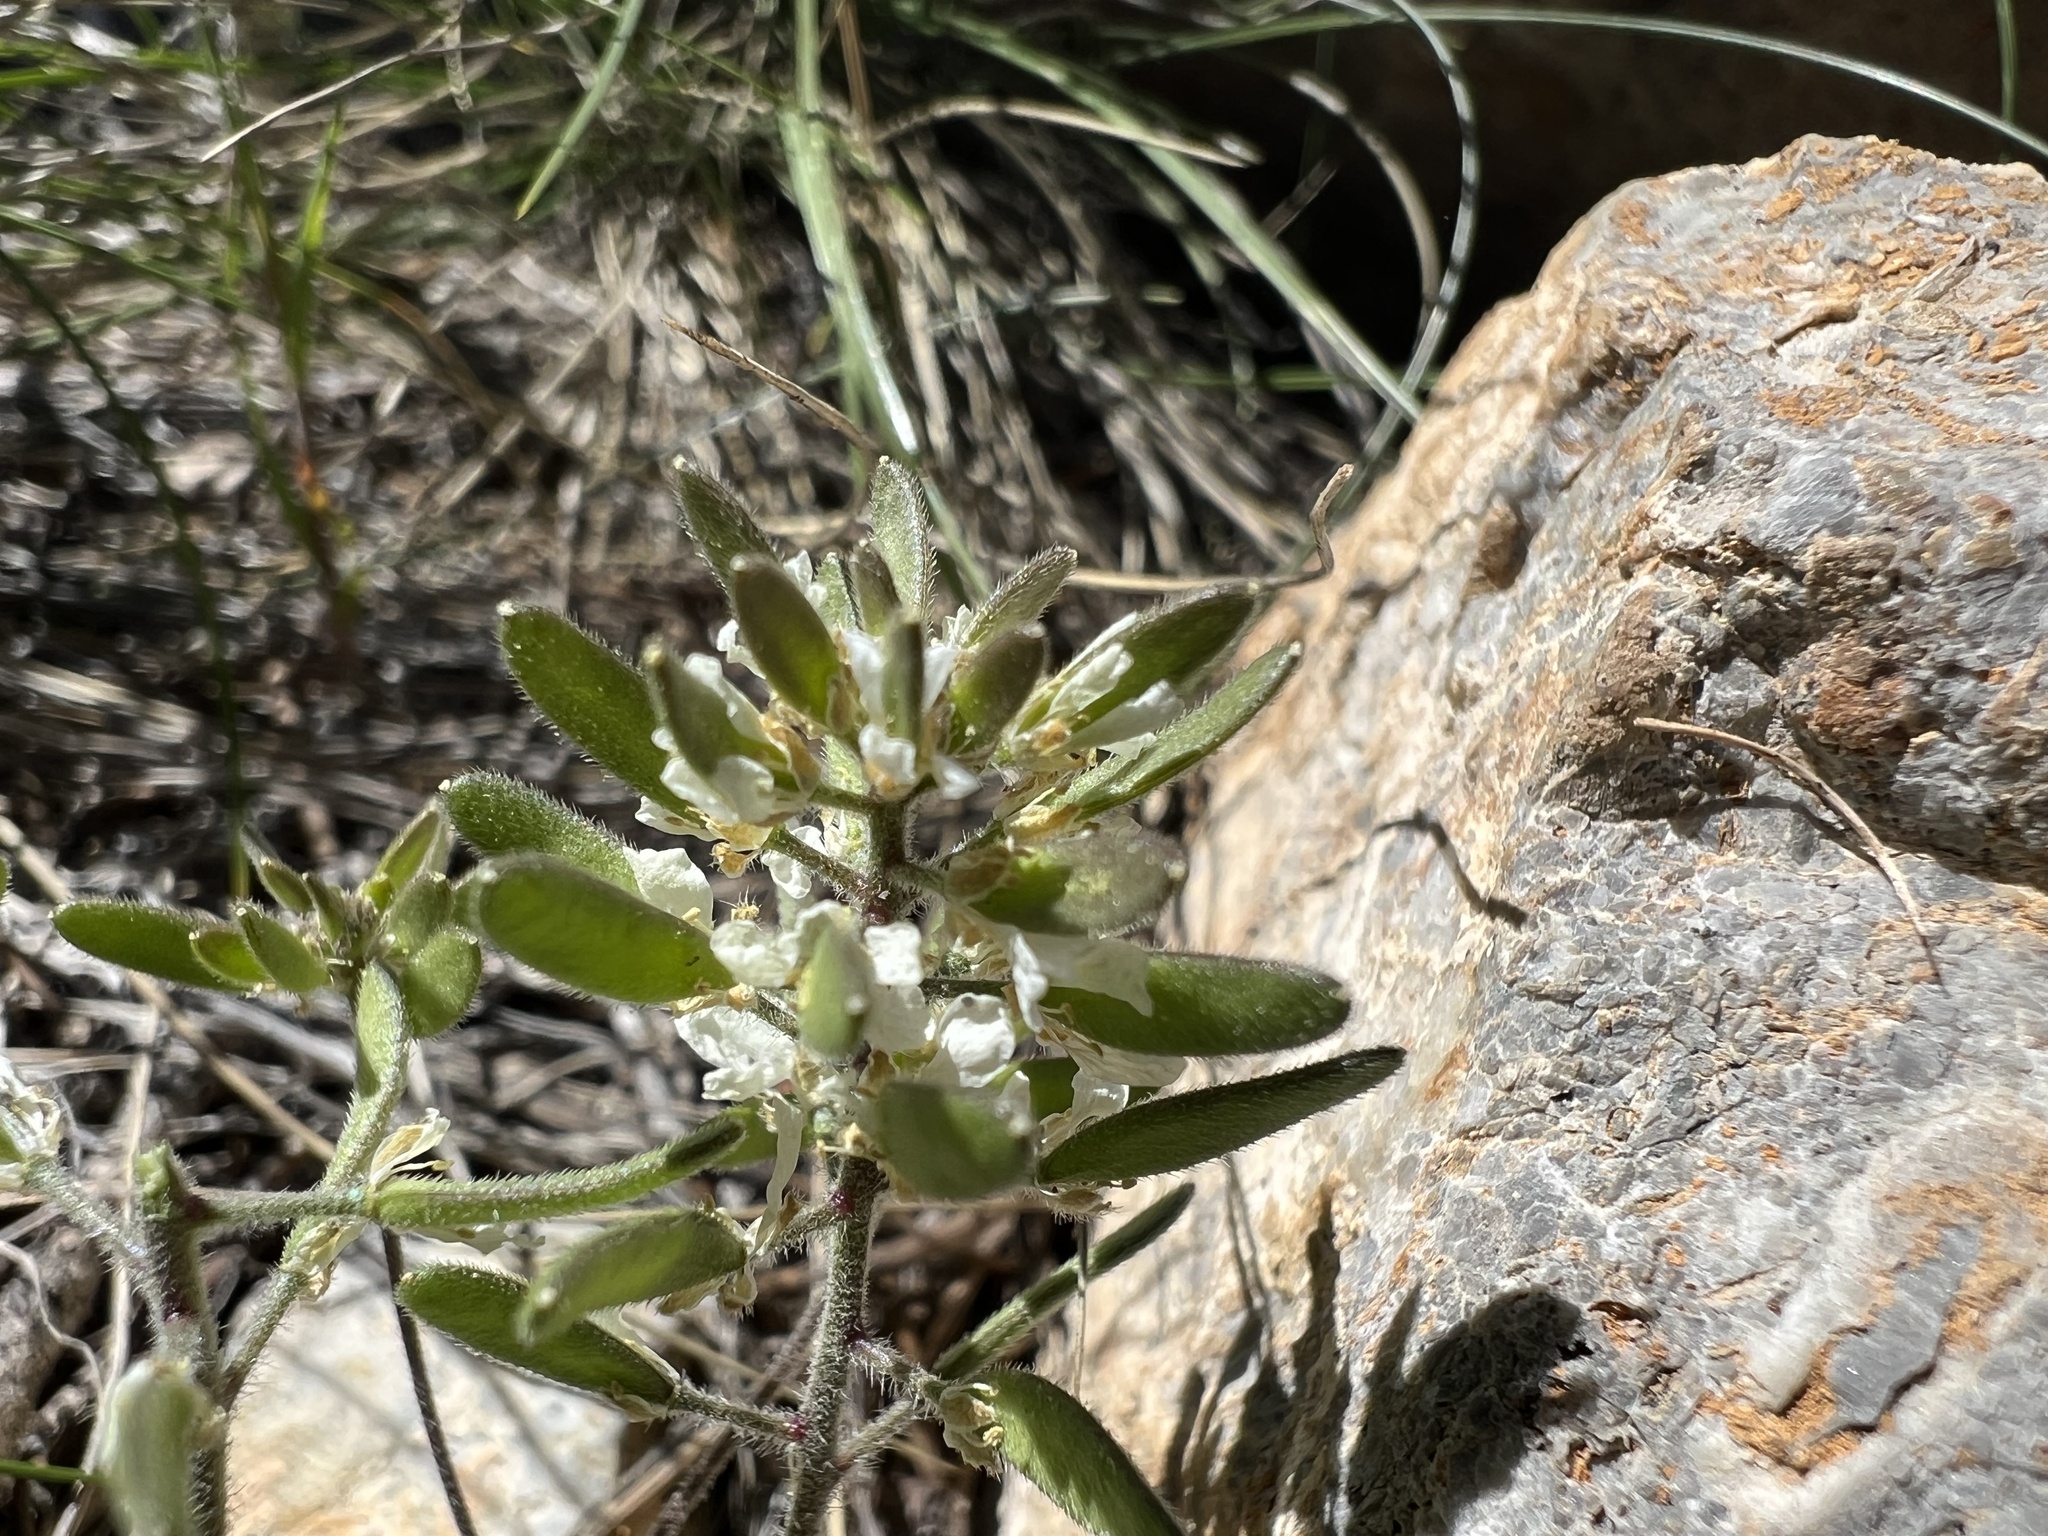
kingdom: Plantae
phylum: Tracheophyta
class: Magnoliopsida
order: Brassicales
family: Brassicaceae
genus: Tomostima
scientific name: Tomostima cuneifolia
